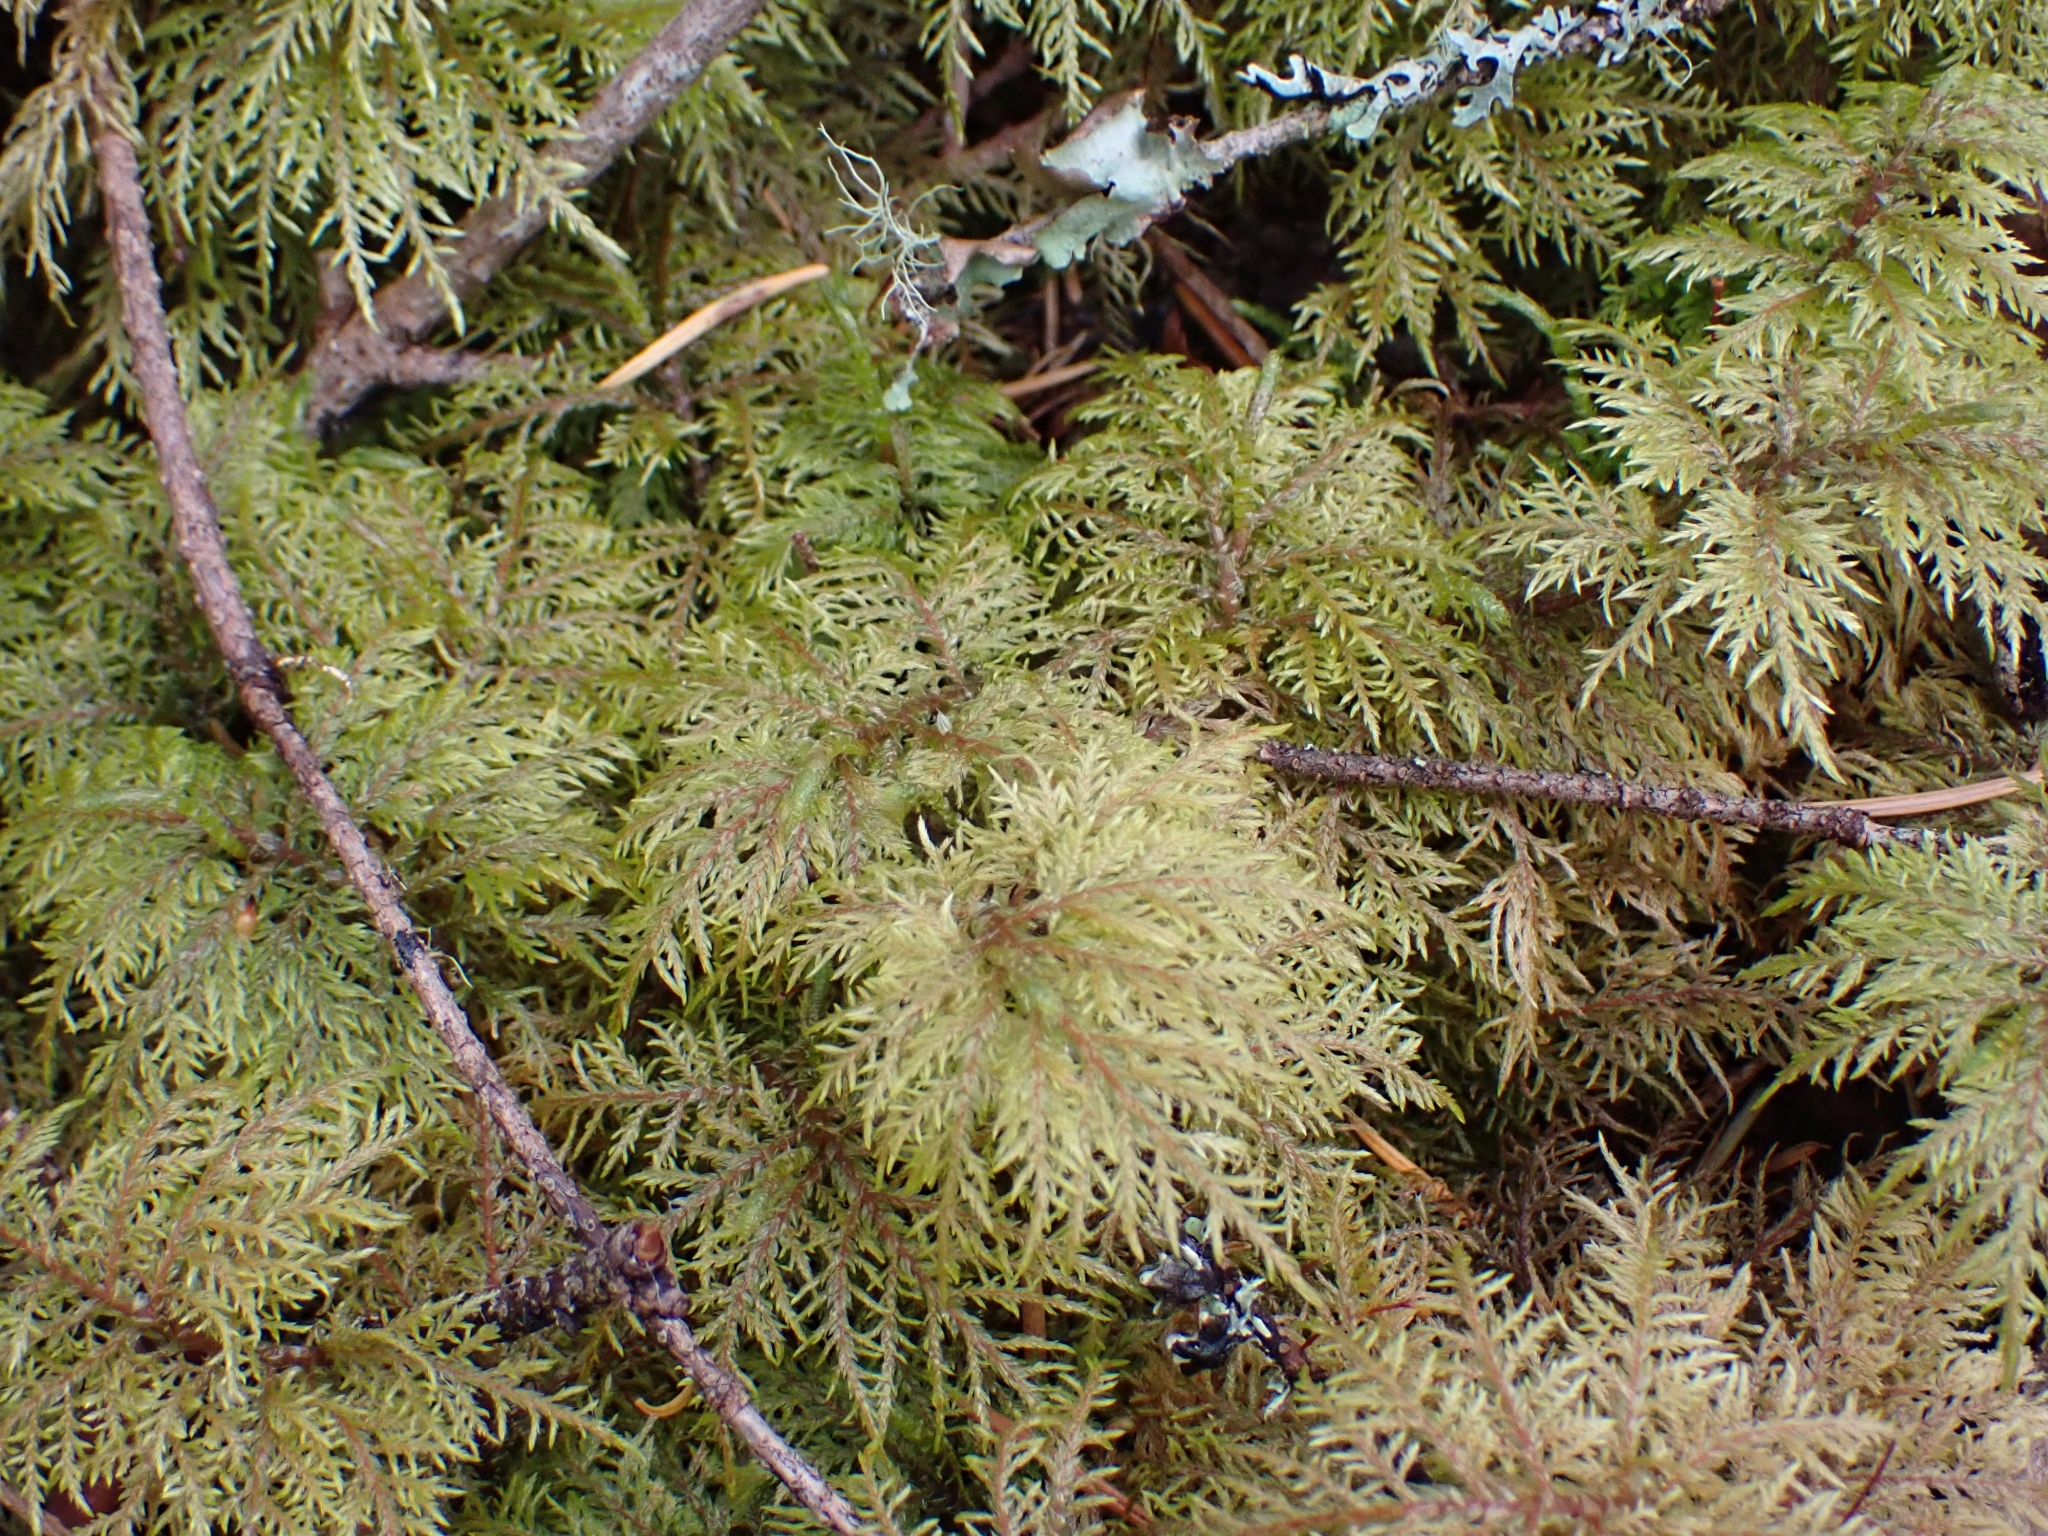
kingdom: Plantae
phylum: Bryophyta
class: Bryopsida
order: Hypnales
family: Hylocomiaceae
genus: Hylocomium
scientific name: Hylocomium splendens
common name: Stairstep moss
